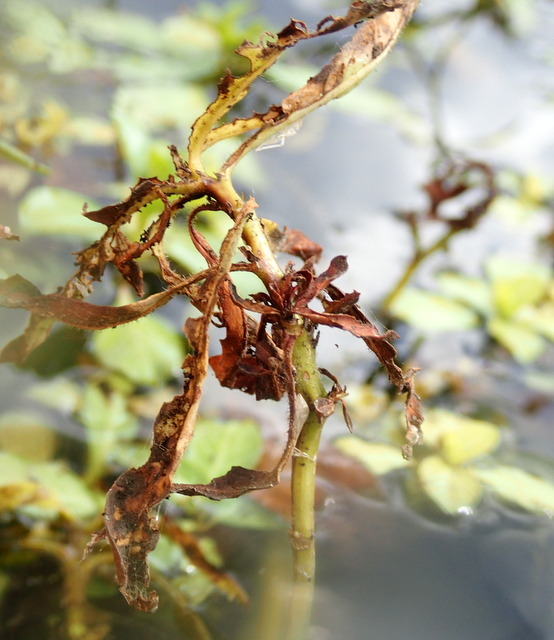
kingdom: Plantae
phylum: Tracheophyta
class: Magnoliopsida
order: Caryophyllales
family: Amaranthaceae
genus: Alternanthera
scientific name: Alternanthera philoxeroides
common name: Alligatorweed
